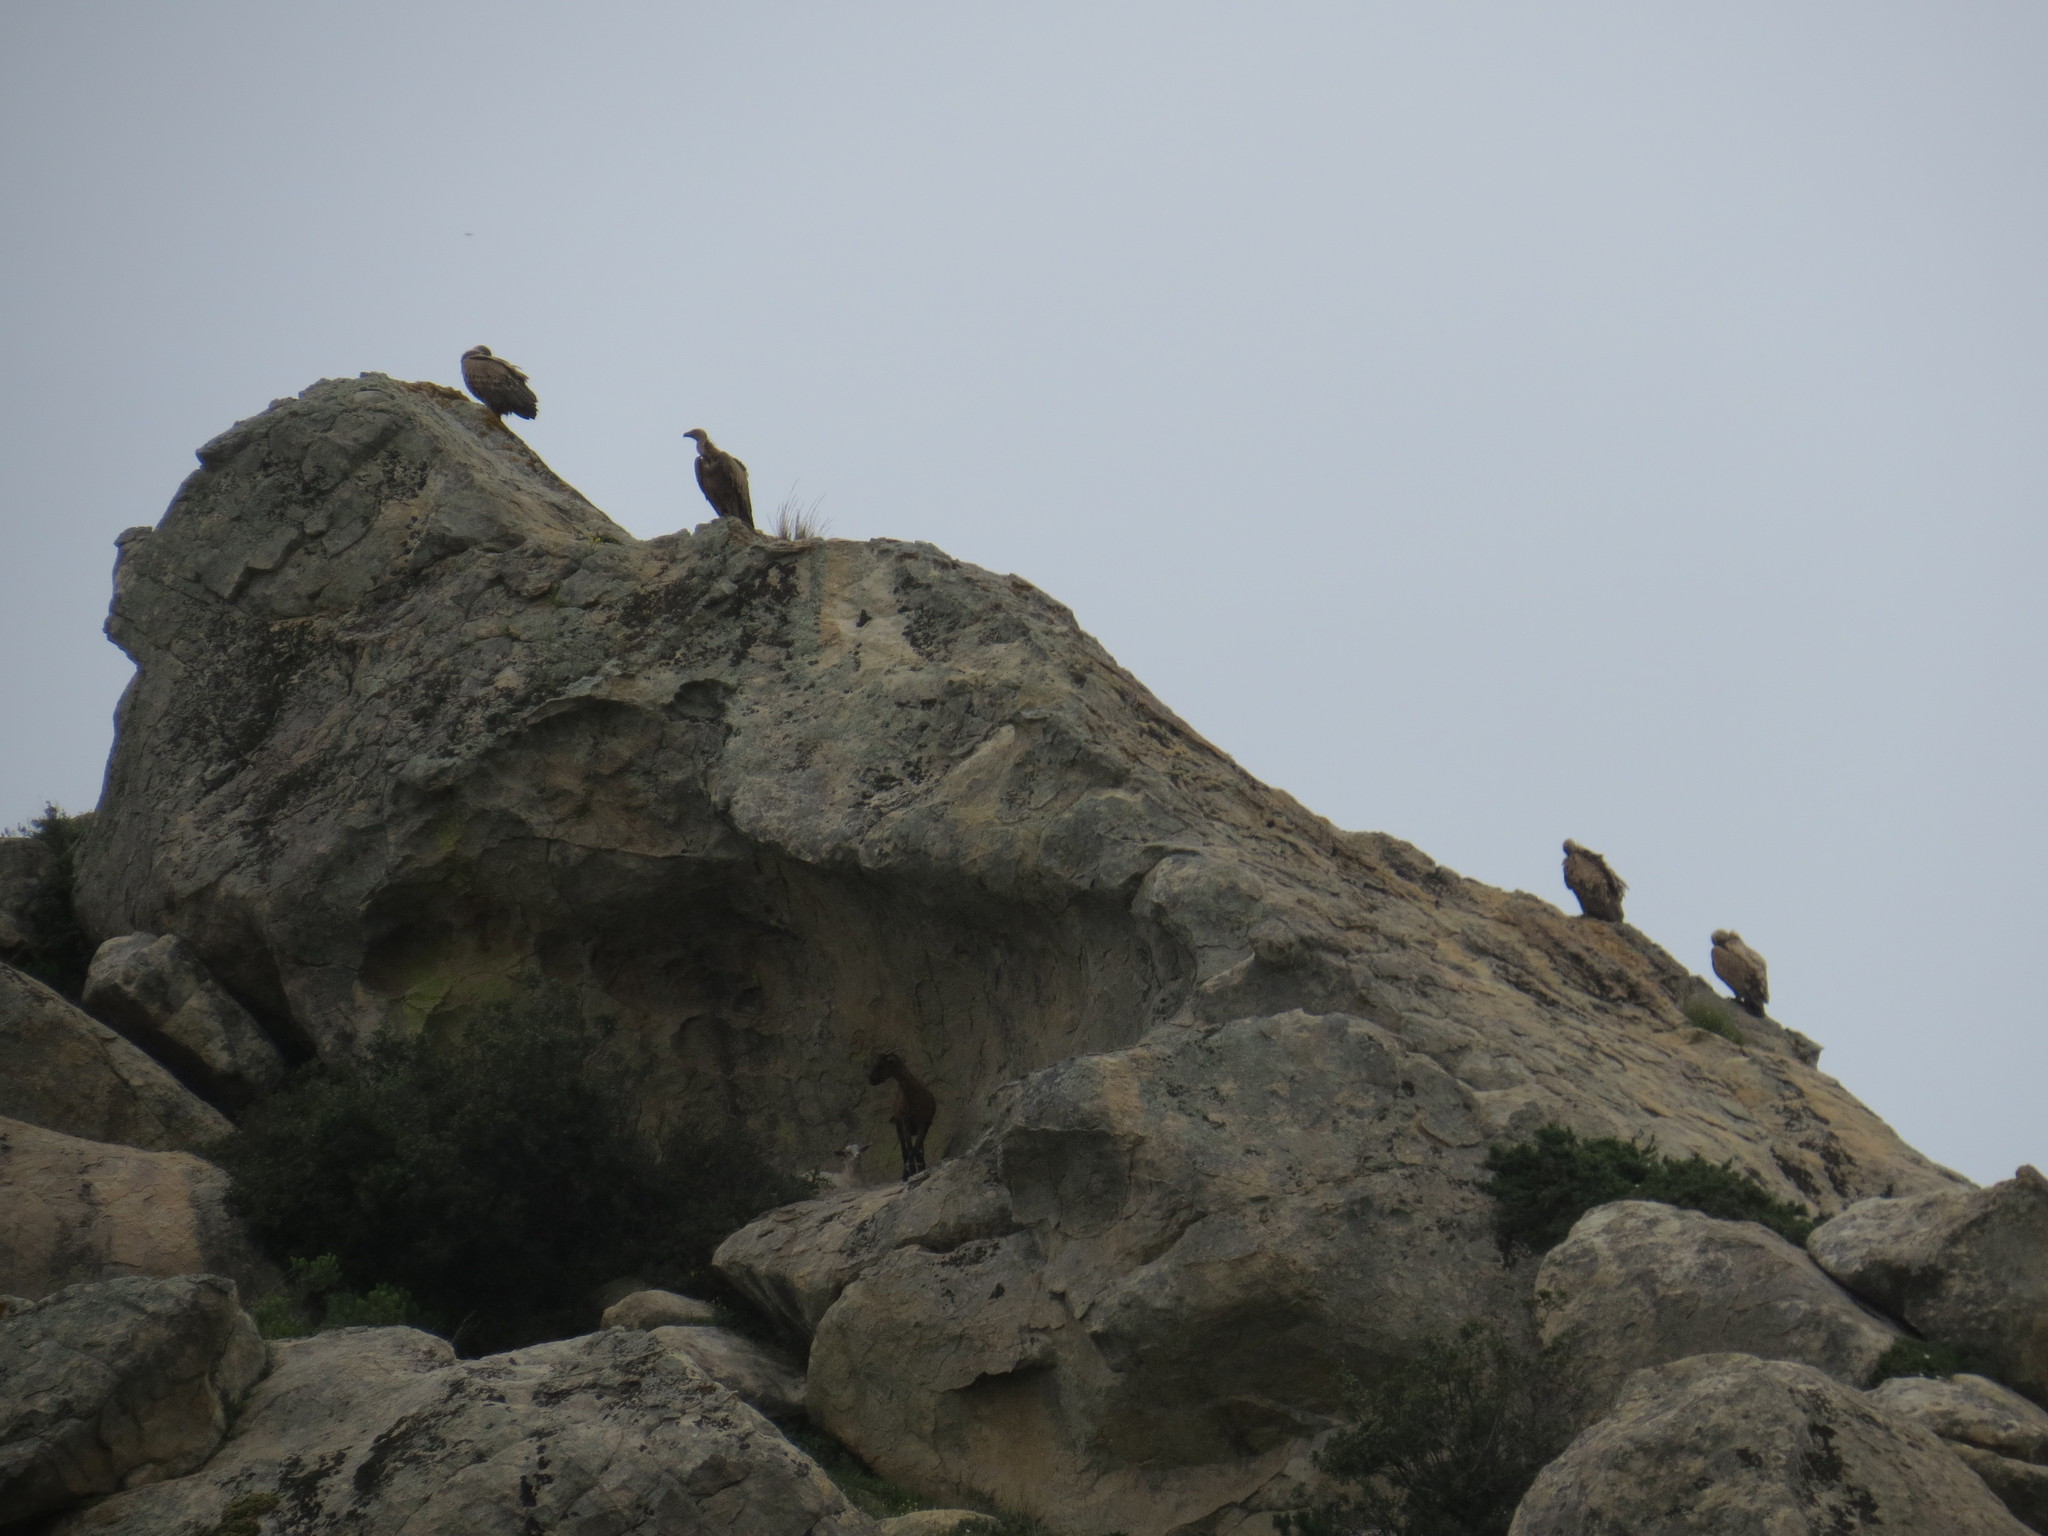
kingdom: Animalia
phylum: Chordata
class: Aves
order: Accipitriformes
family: Accipitridae
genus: Gyps
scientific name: Gyps fulvus
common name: Griffon vulture
